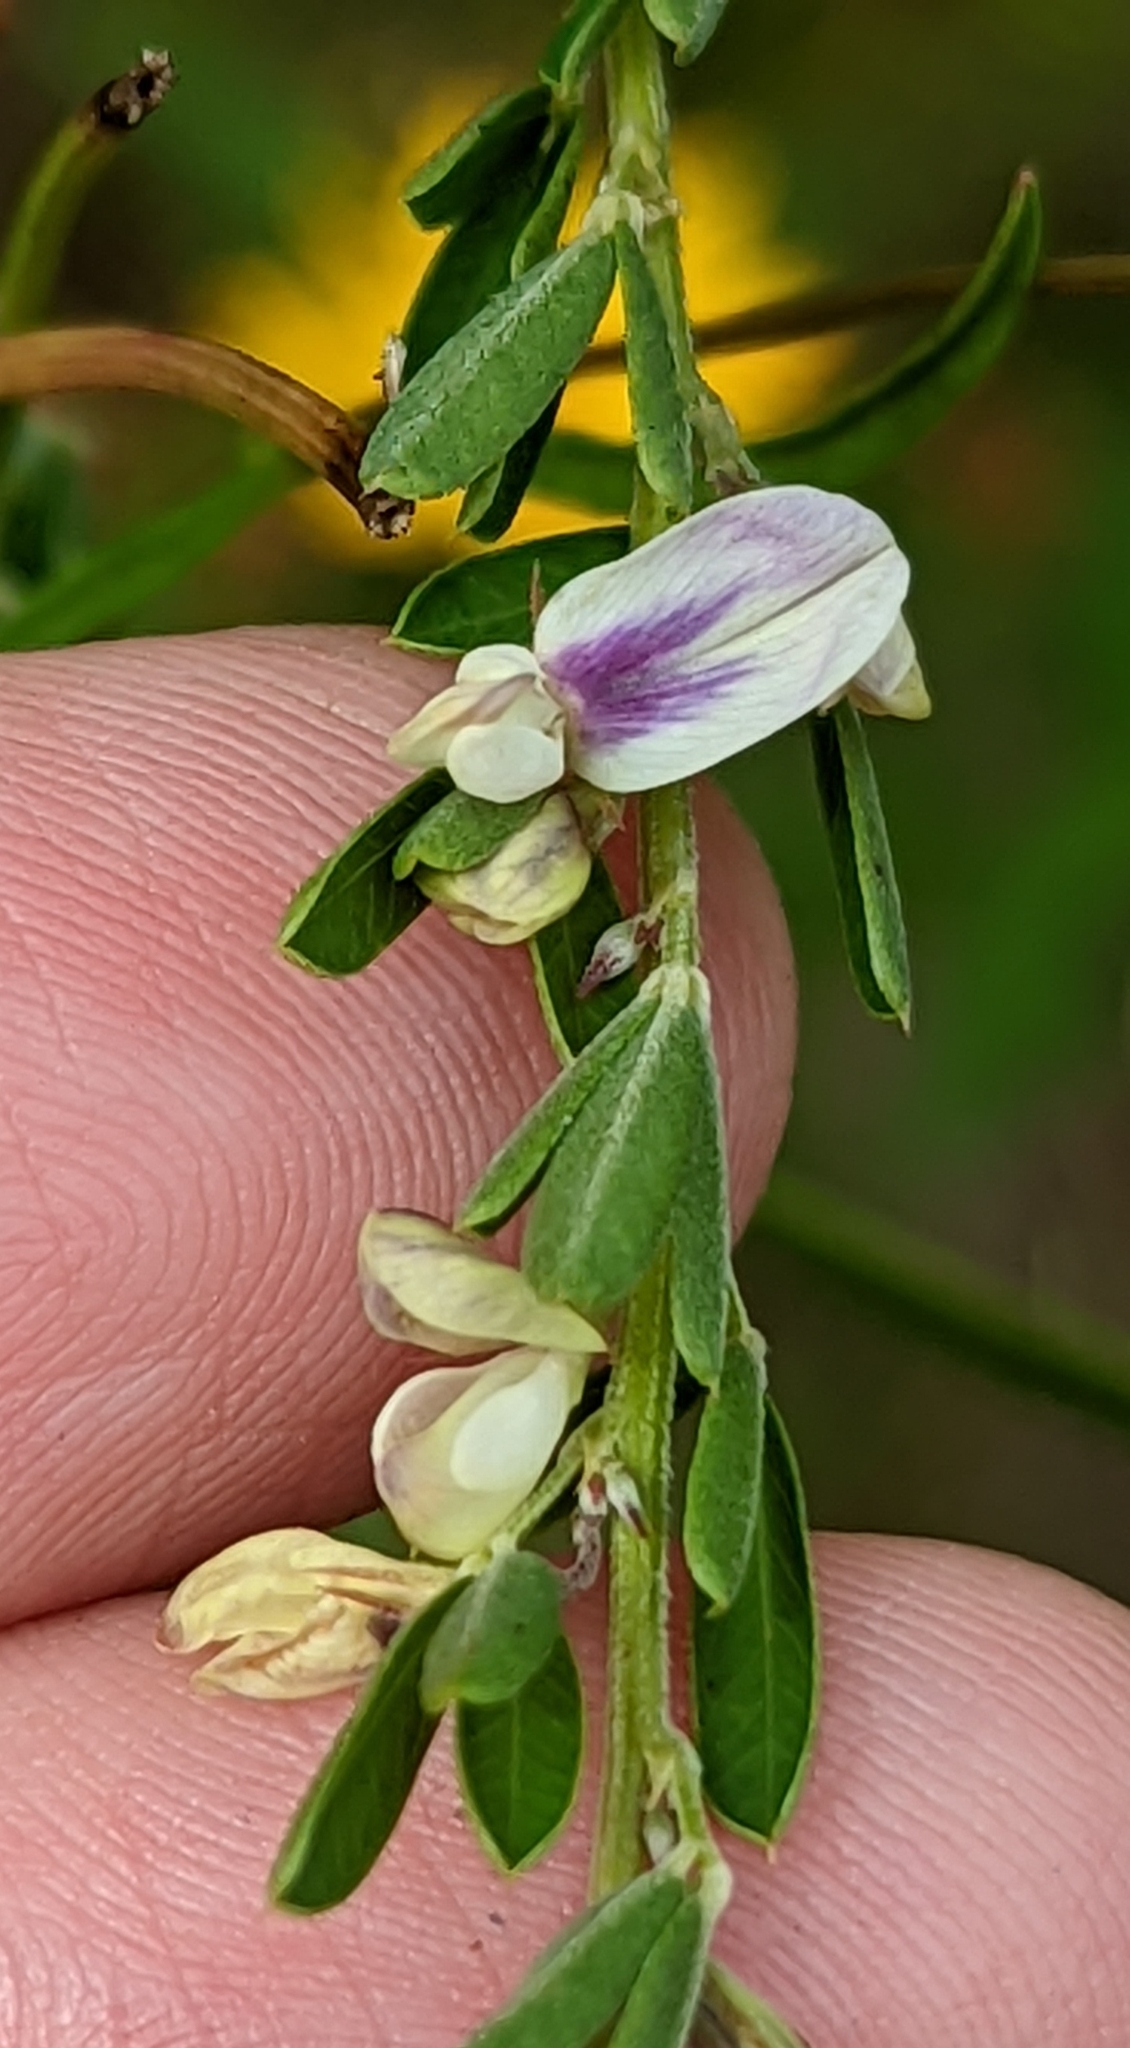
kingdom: Plantae
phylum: Tracheophyta
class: Magnoliopsida
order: Fabales
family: Fabaceae
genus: Lespedeza
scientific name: Lespedeza cuneata
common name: Chinese bush-clover
